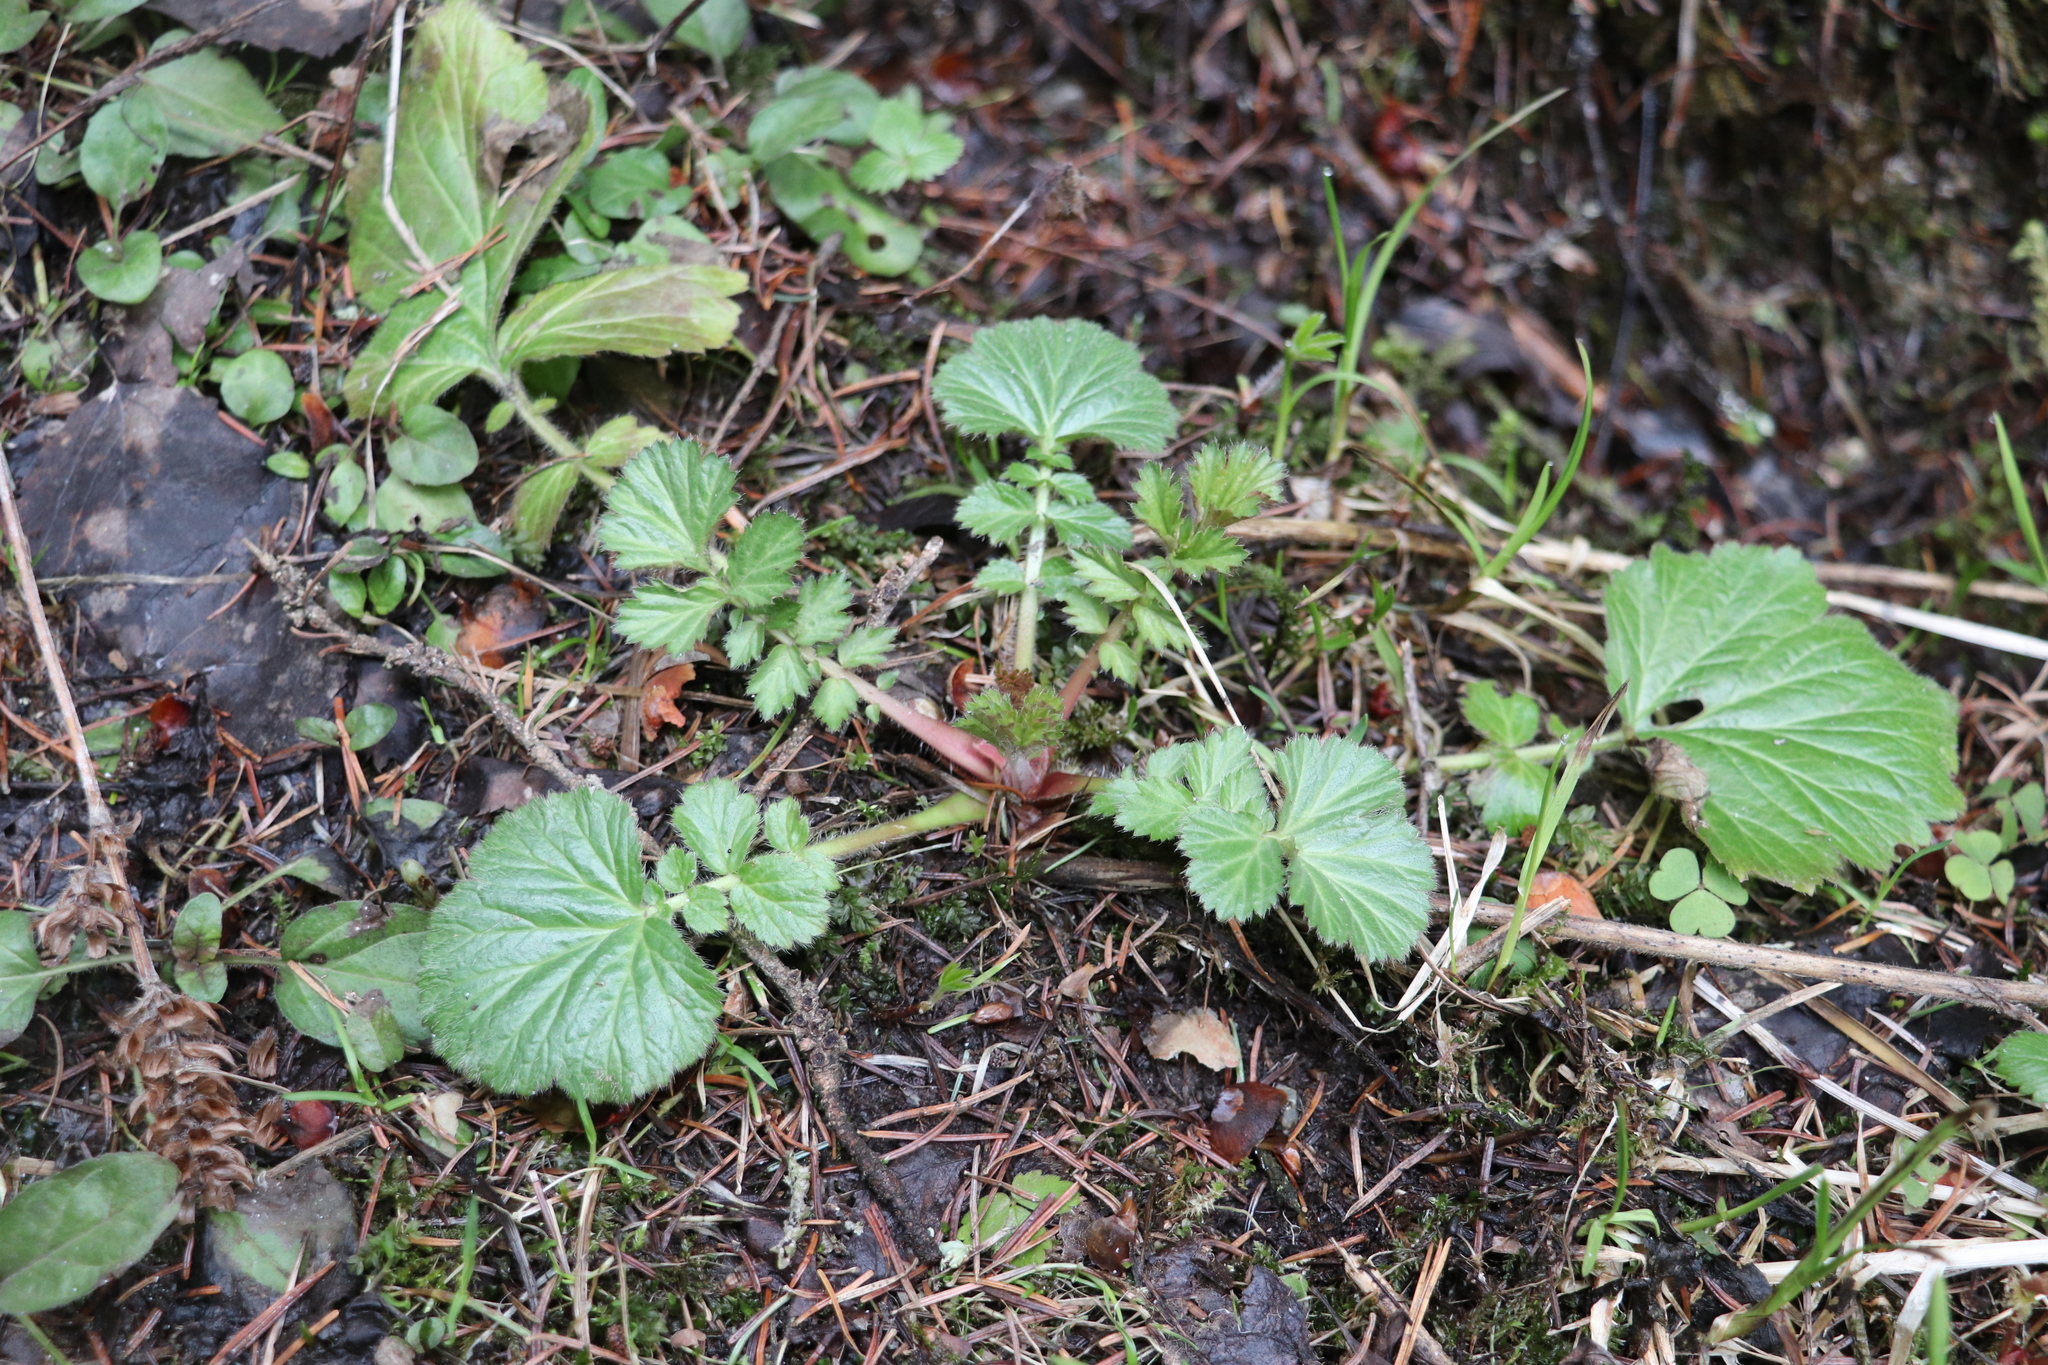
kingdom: Plantae
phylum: Tracheophyta
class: Magnoliopsida
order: Rosales
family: Rosaceae
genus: Geum
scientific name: Geum aleppicum
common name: Yellow avens
